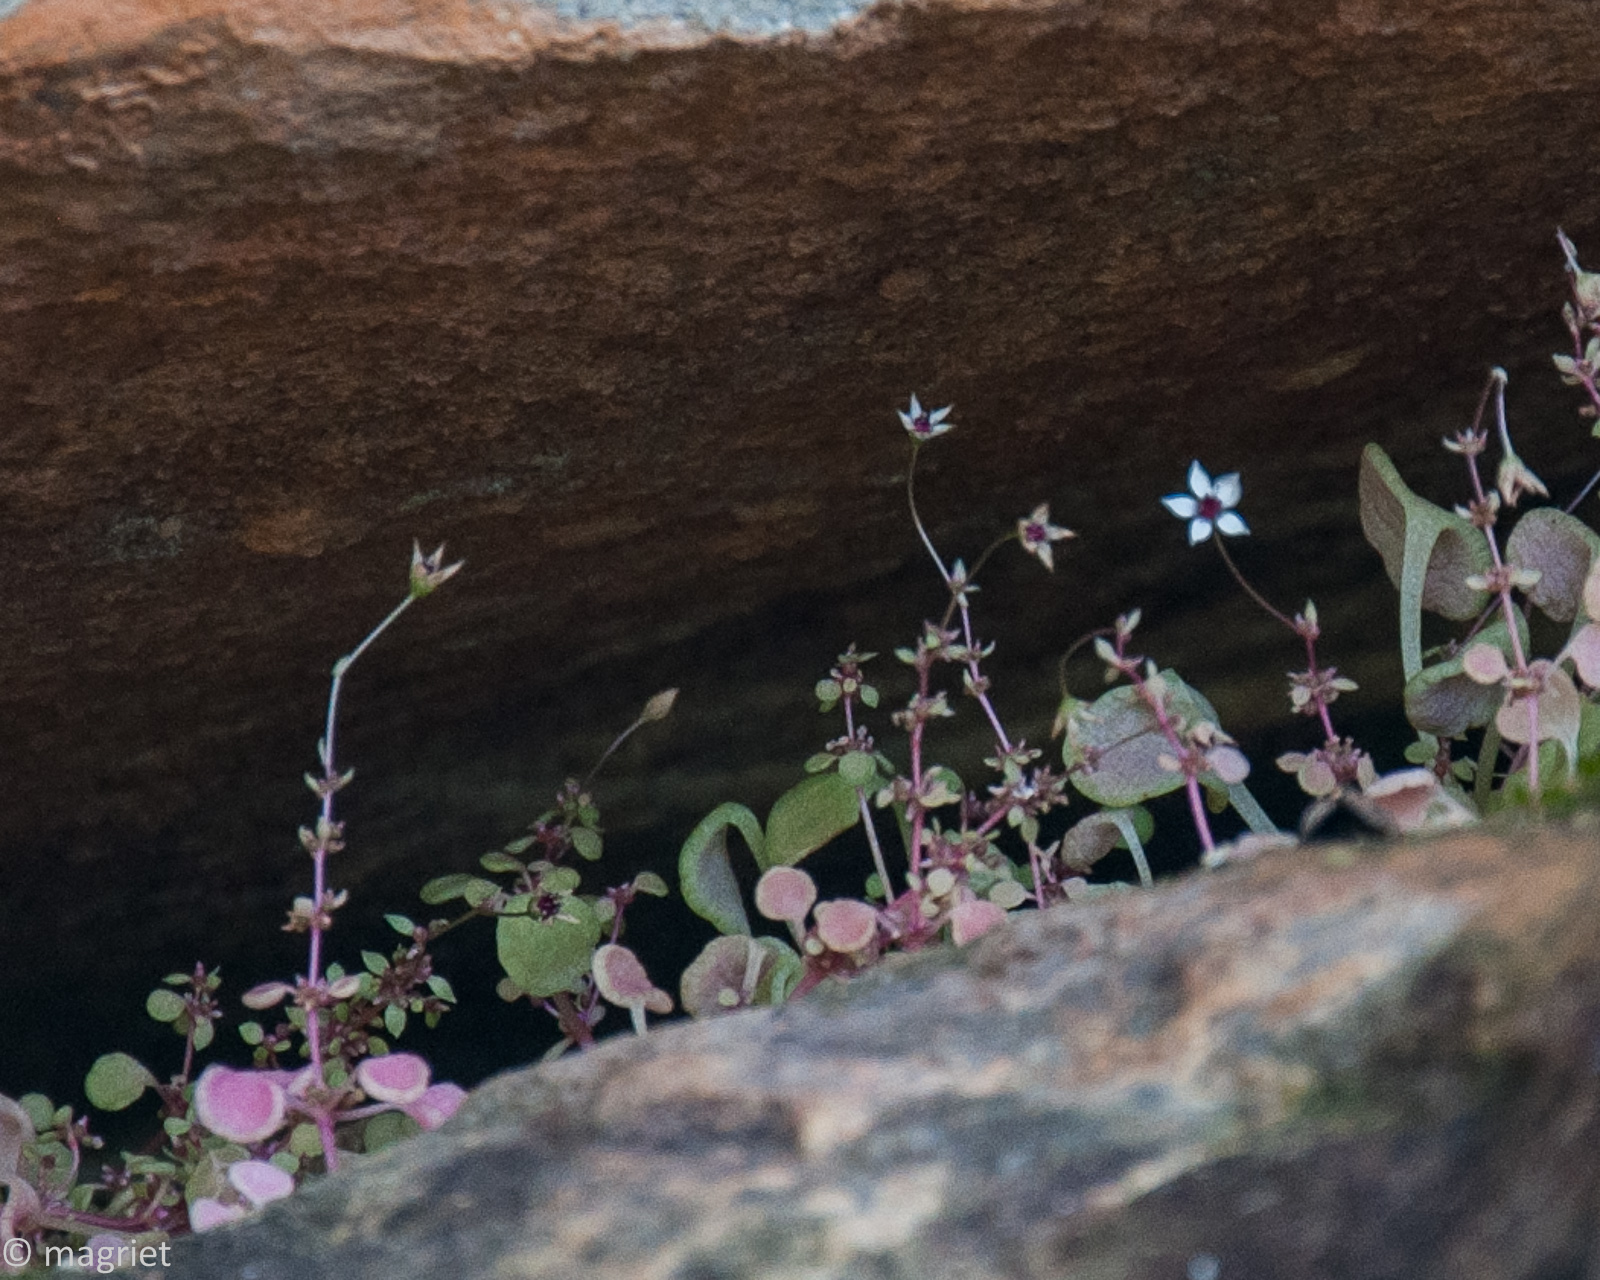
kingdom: Plantae
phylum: Tracheophyta
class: Magnoliopsida
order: Saxifragales
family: Crassulaceae
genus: Crassula
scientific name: Crassula dentata
